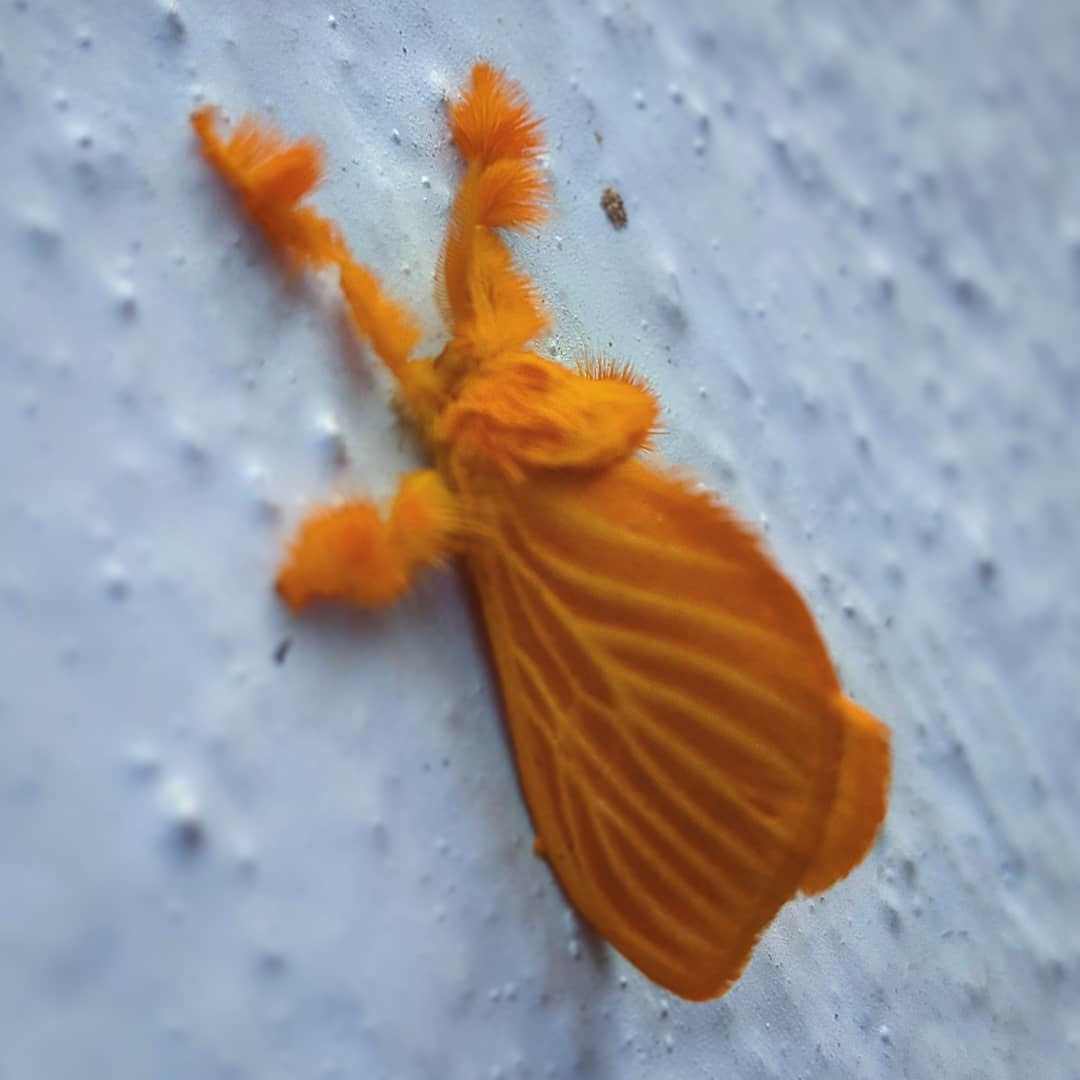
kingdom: Animalia
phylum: Arthropoda
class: Insecta
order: Lepidoptera
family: Dalceridae
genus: Acraga
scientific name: Acraga coa
